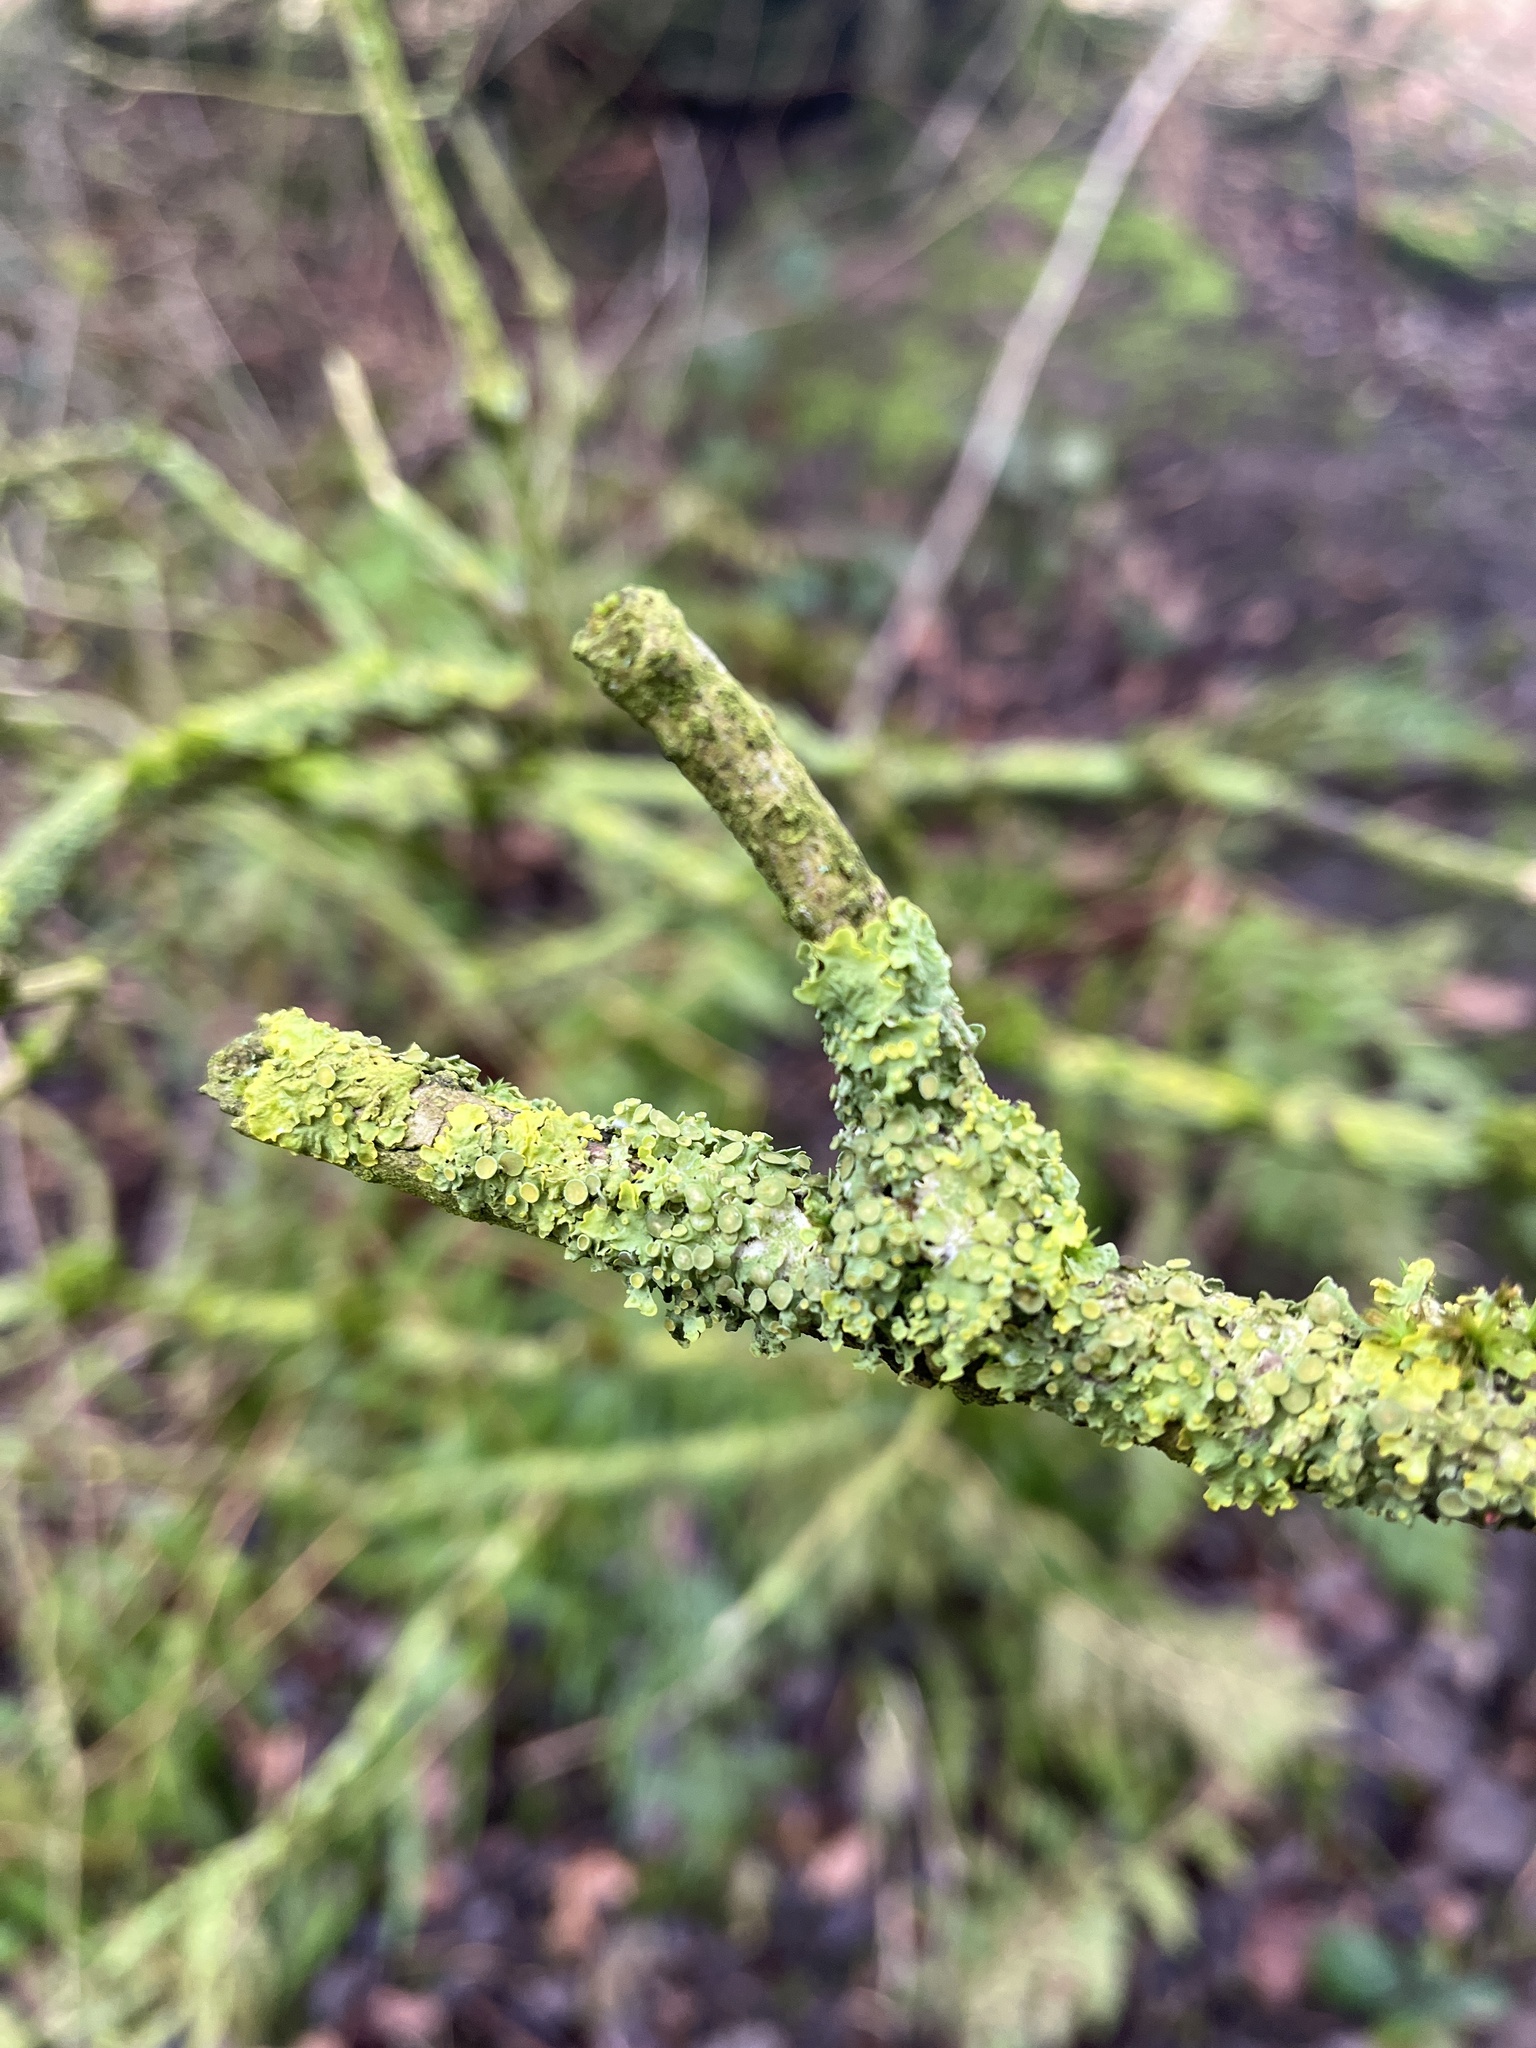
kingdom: Fungi
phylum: Ascomycota
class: Lecanoromycetes
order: Teloschistales
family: Teloschistaceae
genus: Xanthoria
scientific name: Xanthoria parietina
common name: Common orange lichen
